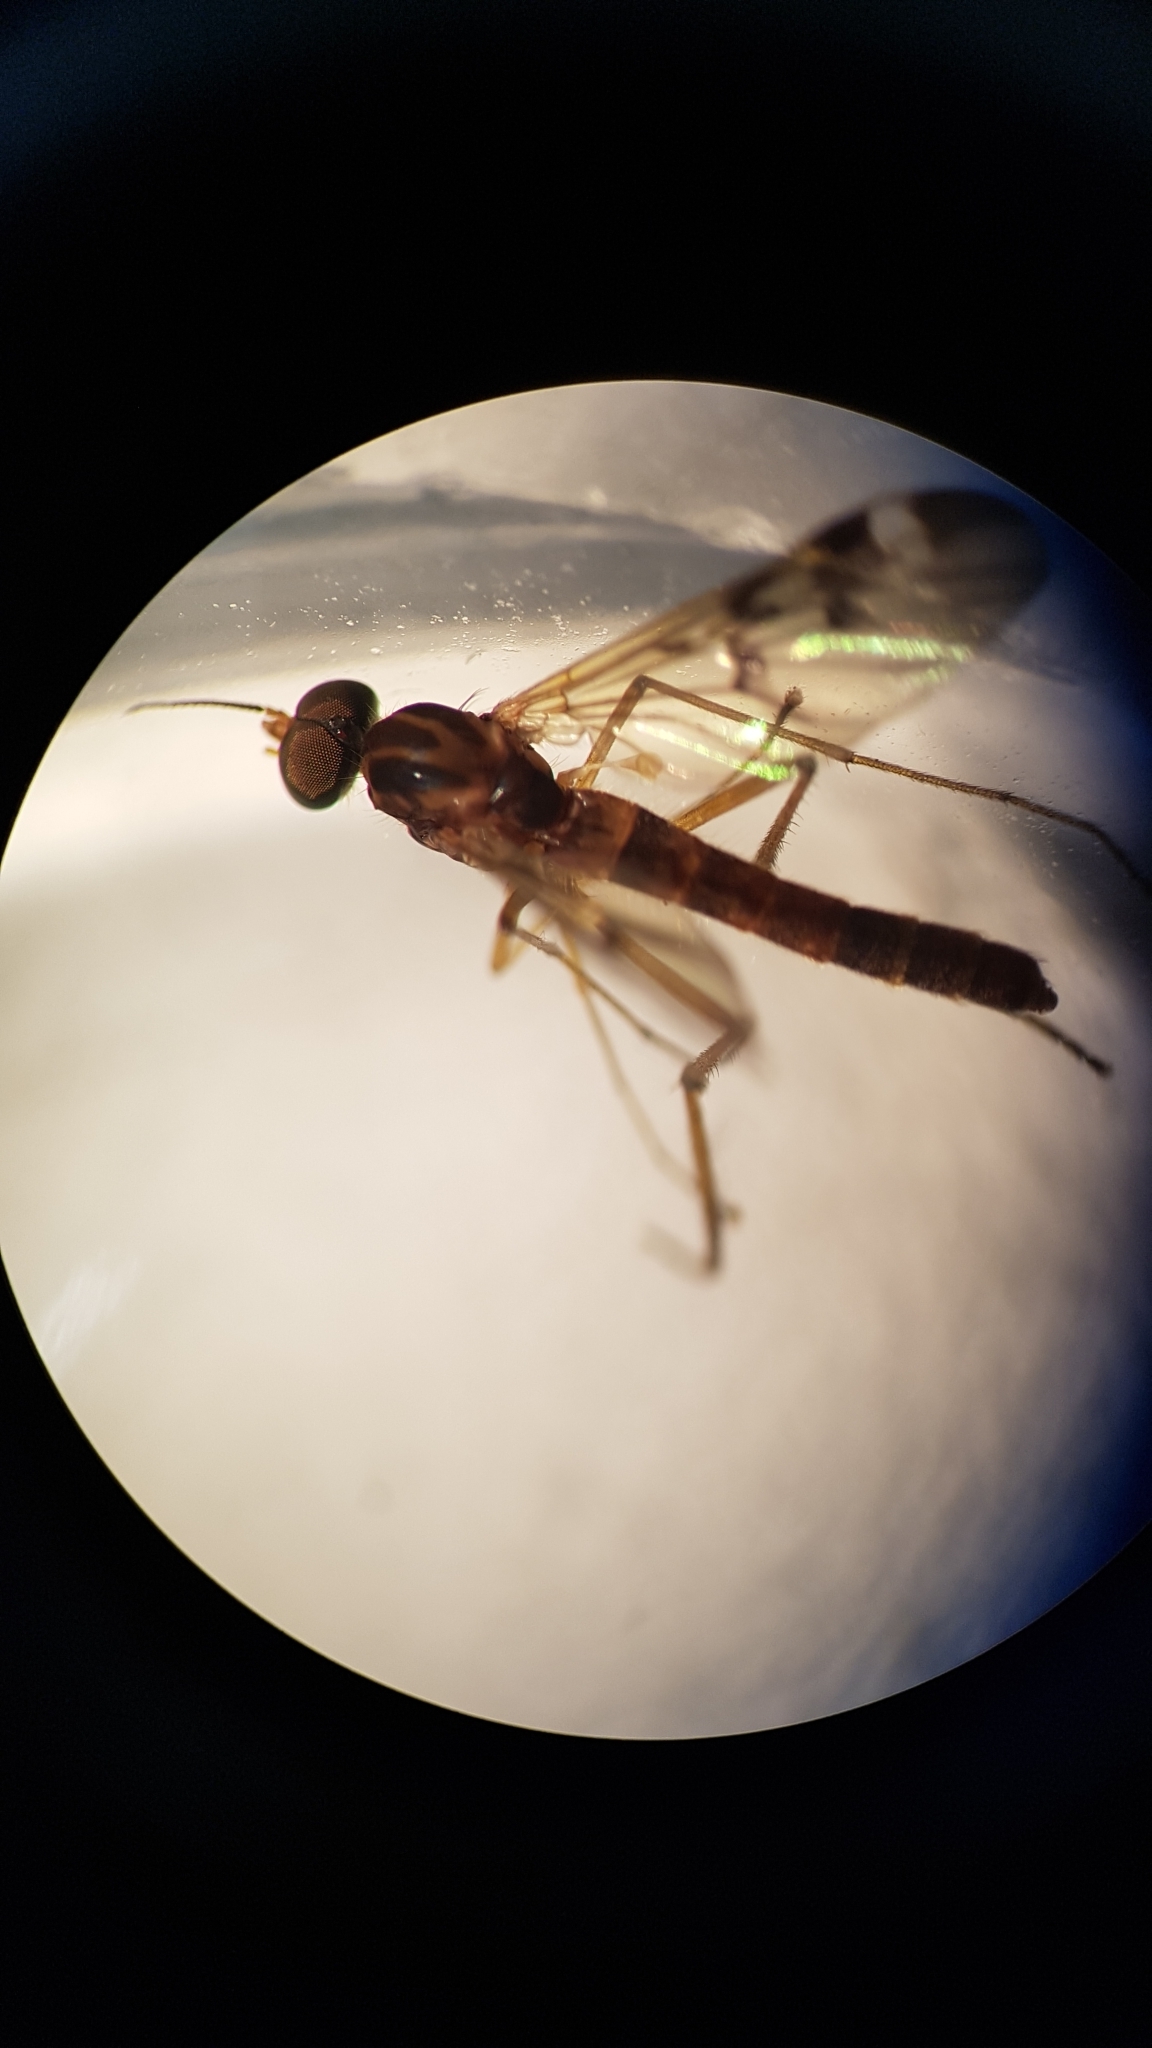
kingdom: Animalia
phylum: Arthropoda
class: Insecta
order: Diptera
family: Anisopodidae
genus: Sylvicola
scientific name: Sylvicola notatus
